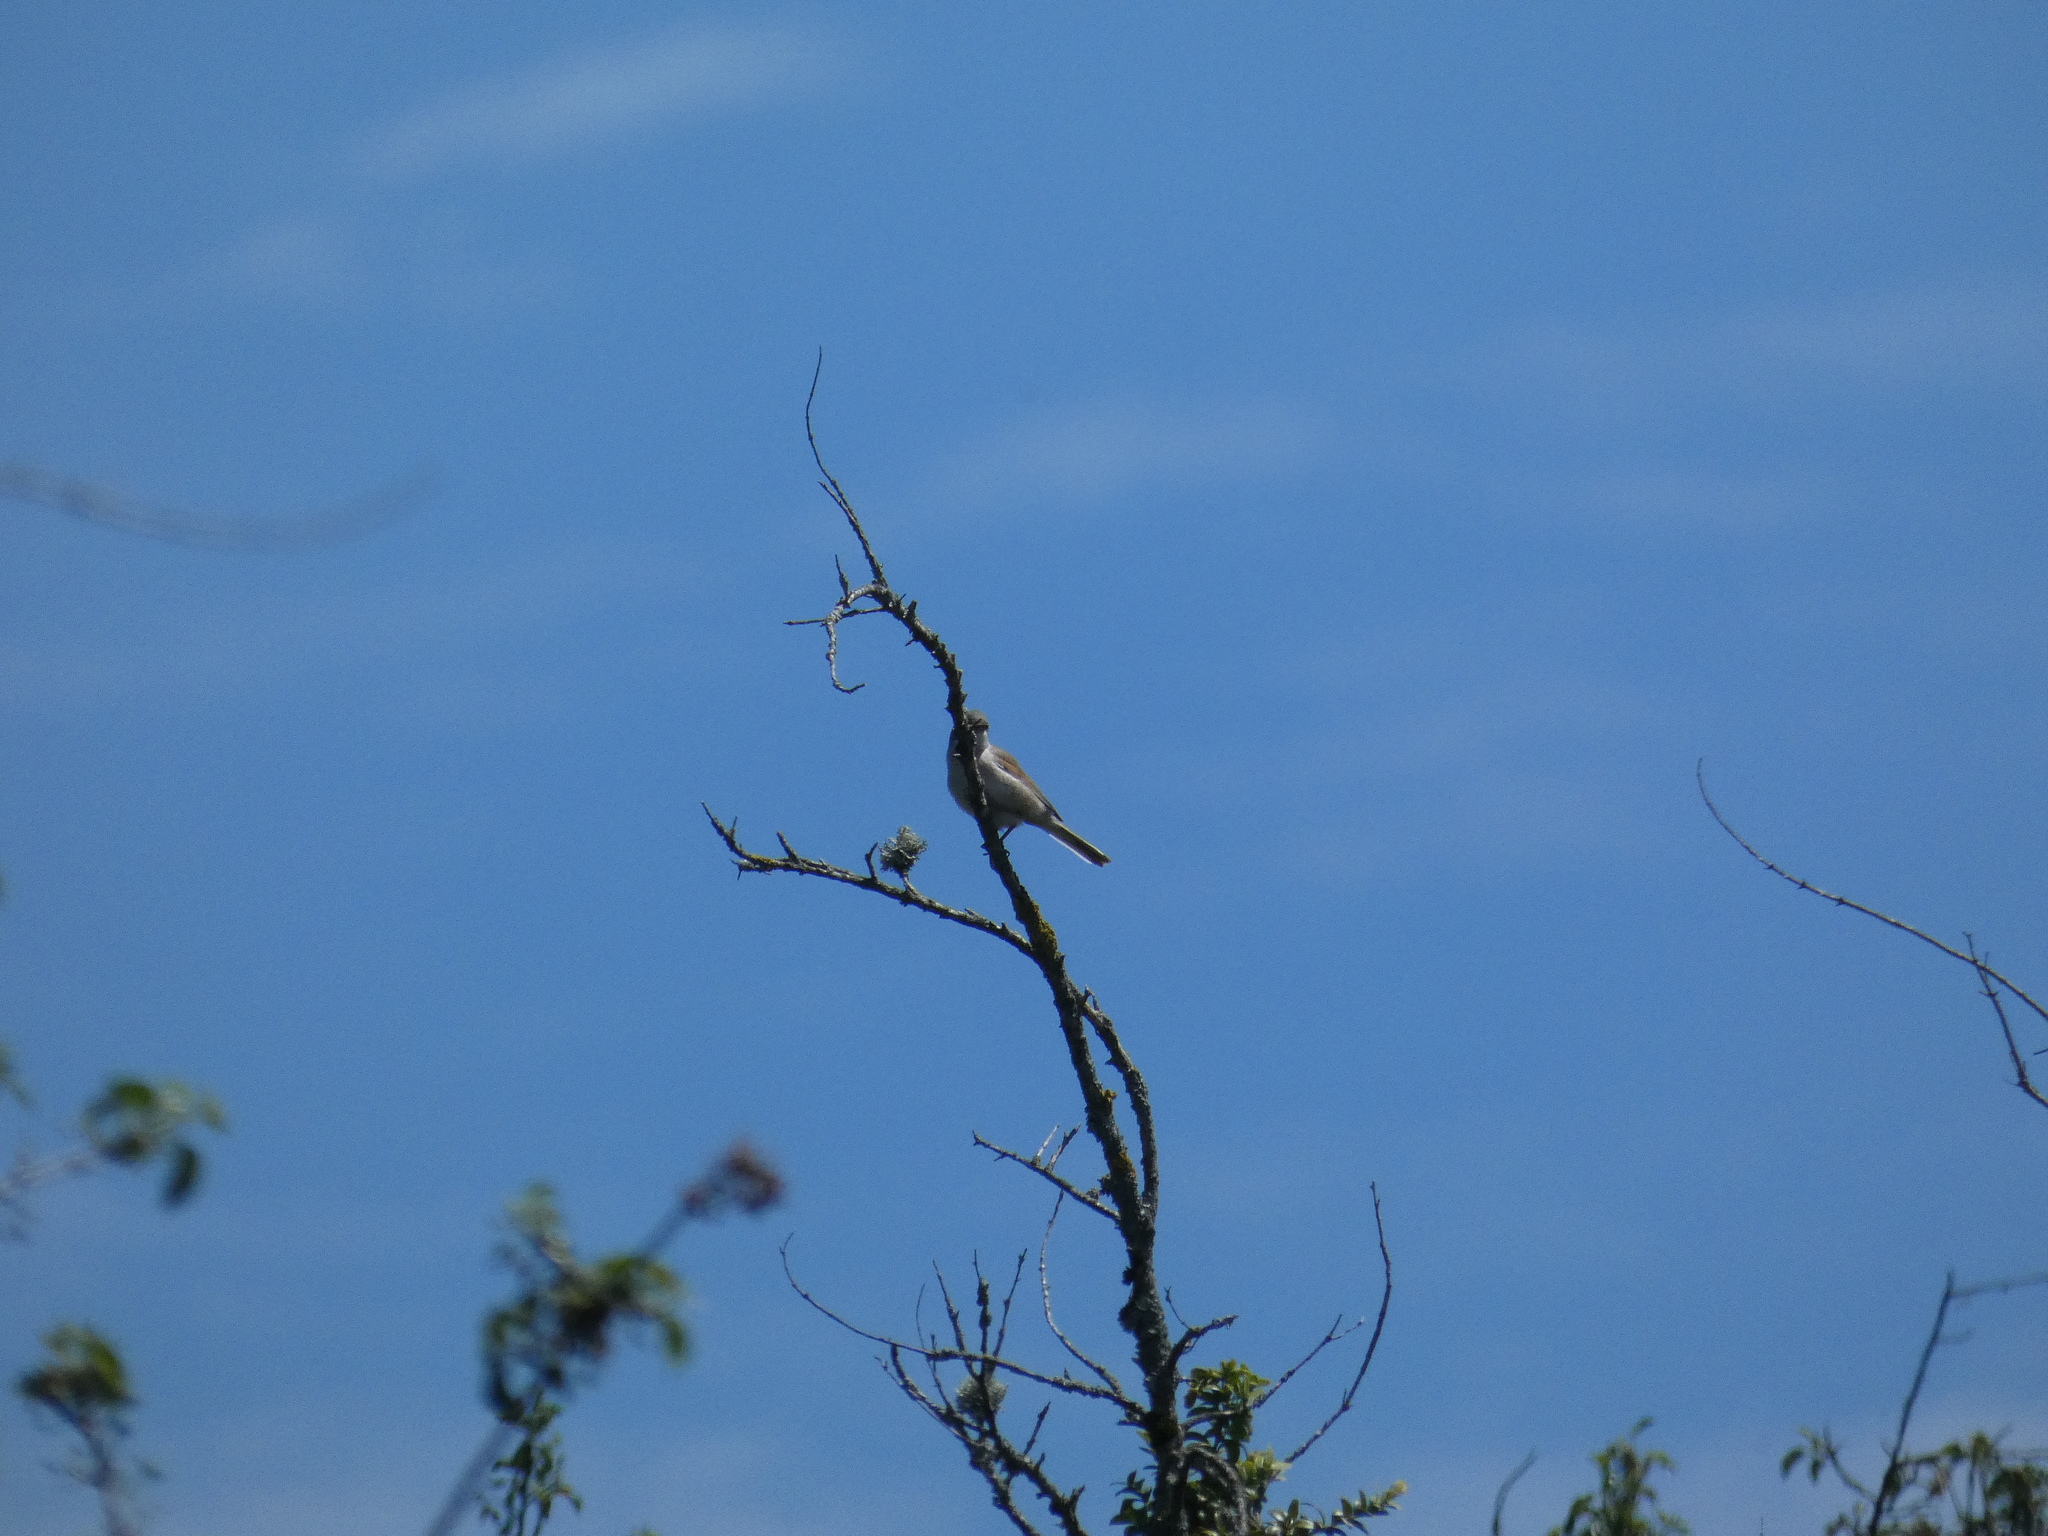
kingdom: Animalia
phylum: Chordata
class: Aves
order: Passeriformes
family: Sylviidae
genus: Sylvia
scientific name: Sylvia communis
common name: Common whitethroat
